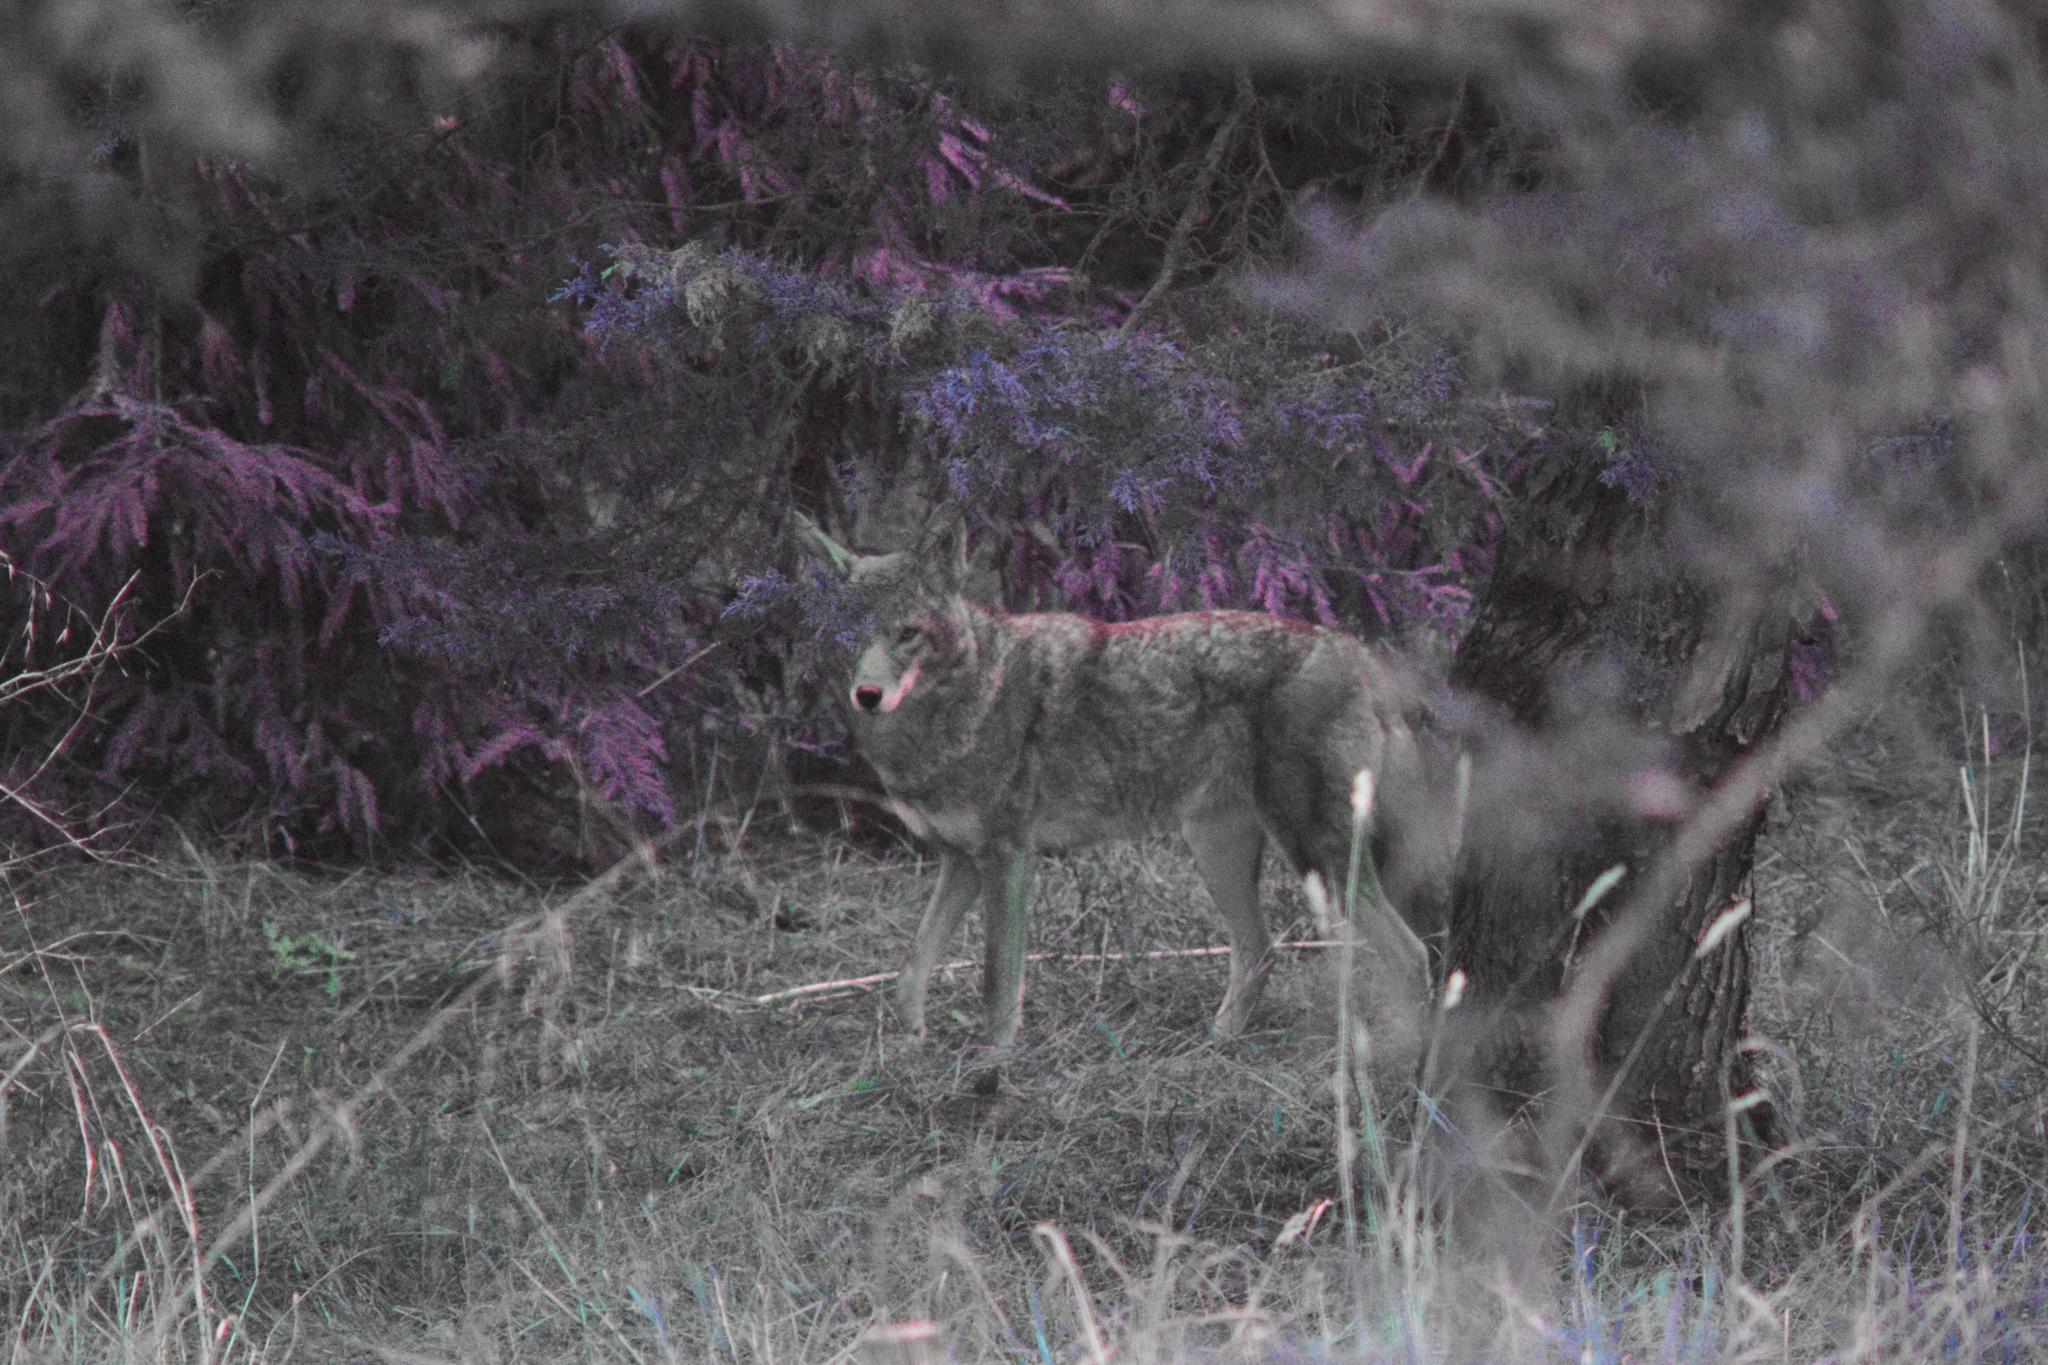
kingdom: Animalia
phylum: Chordata
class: Mammalia
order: Carnivora
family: Canidae
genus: Canis
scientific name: Canis latrans
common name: Coyote
